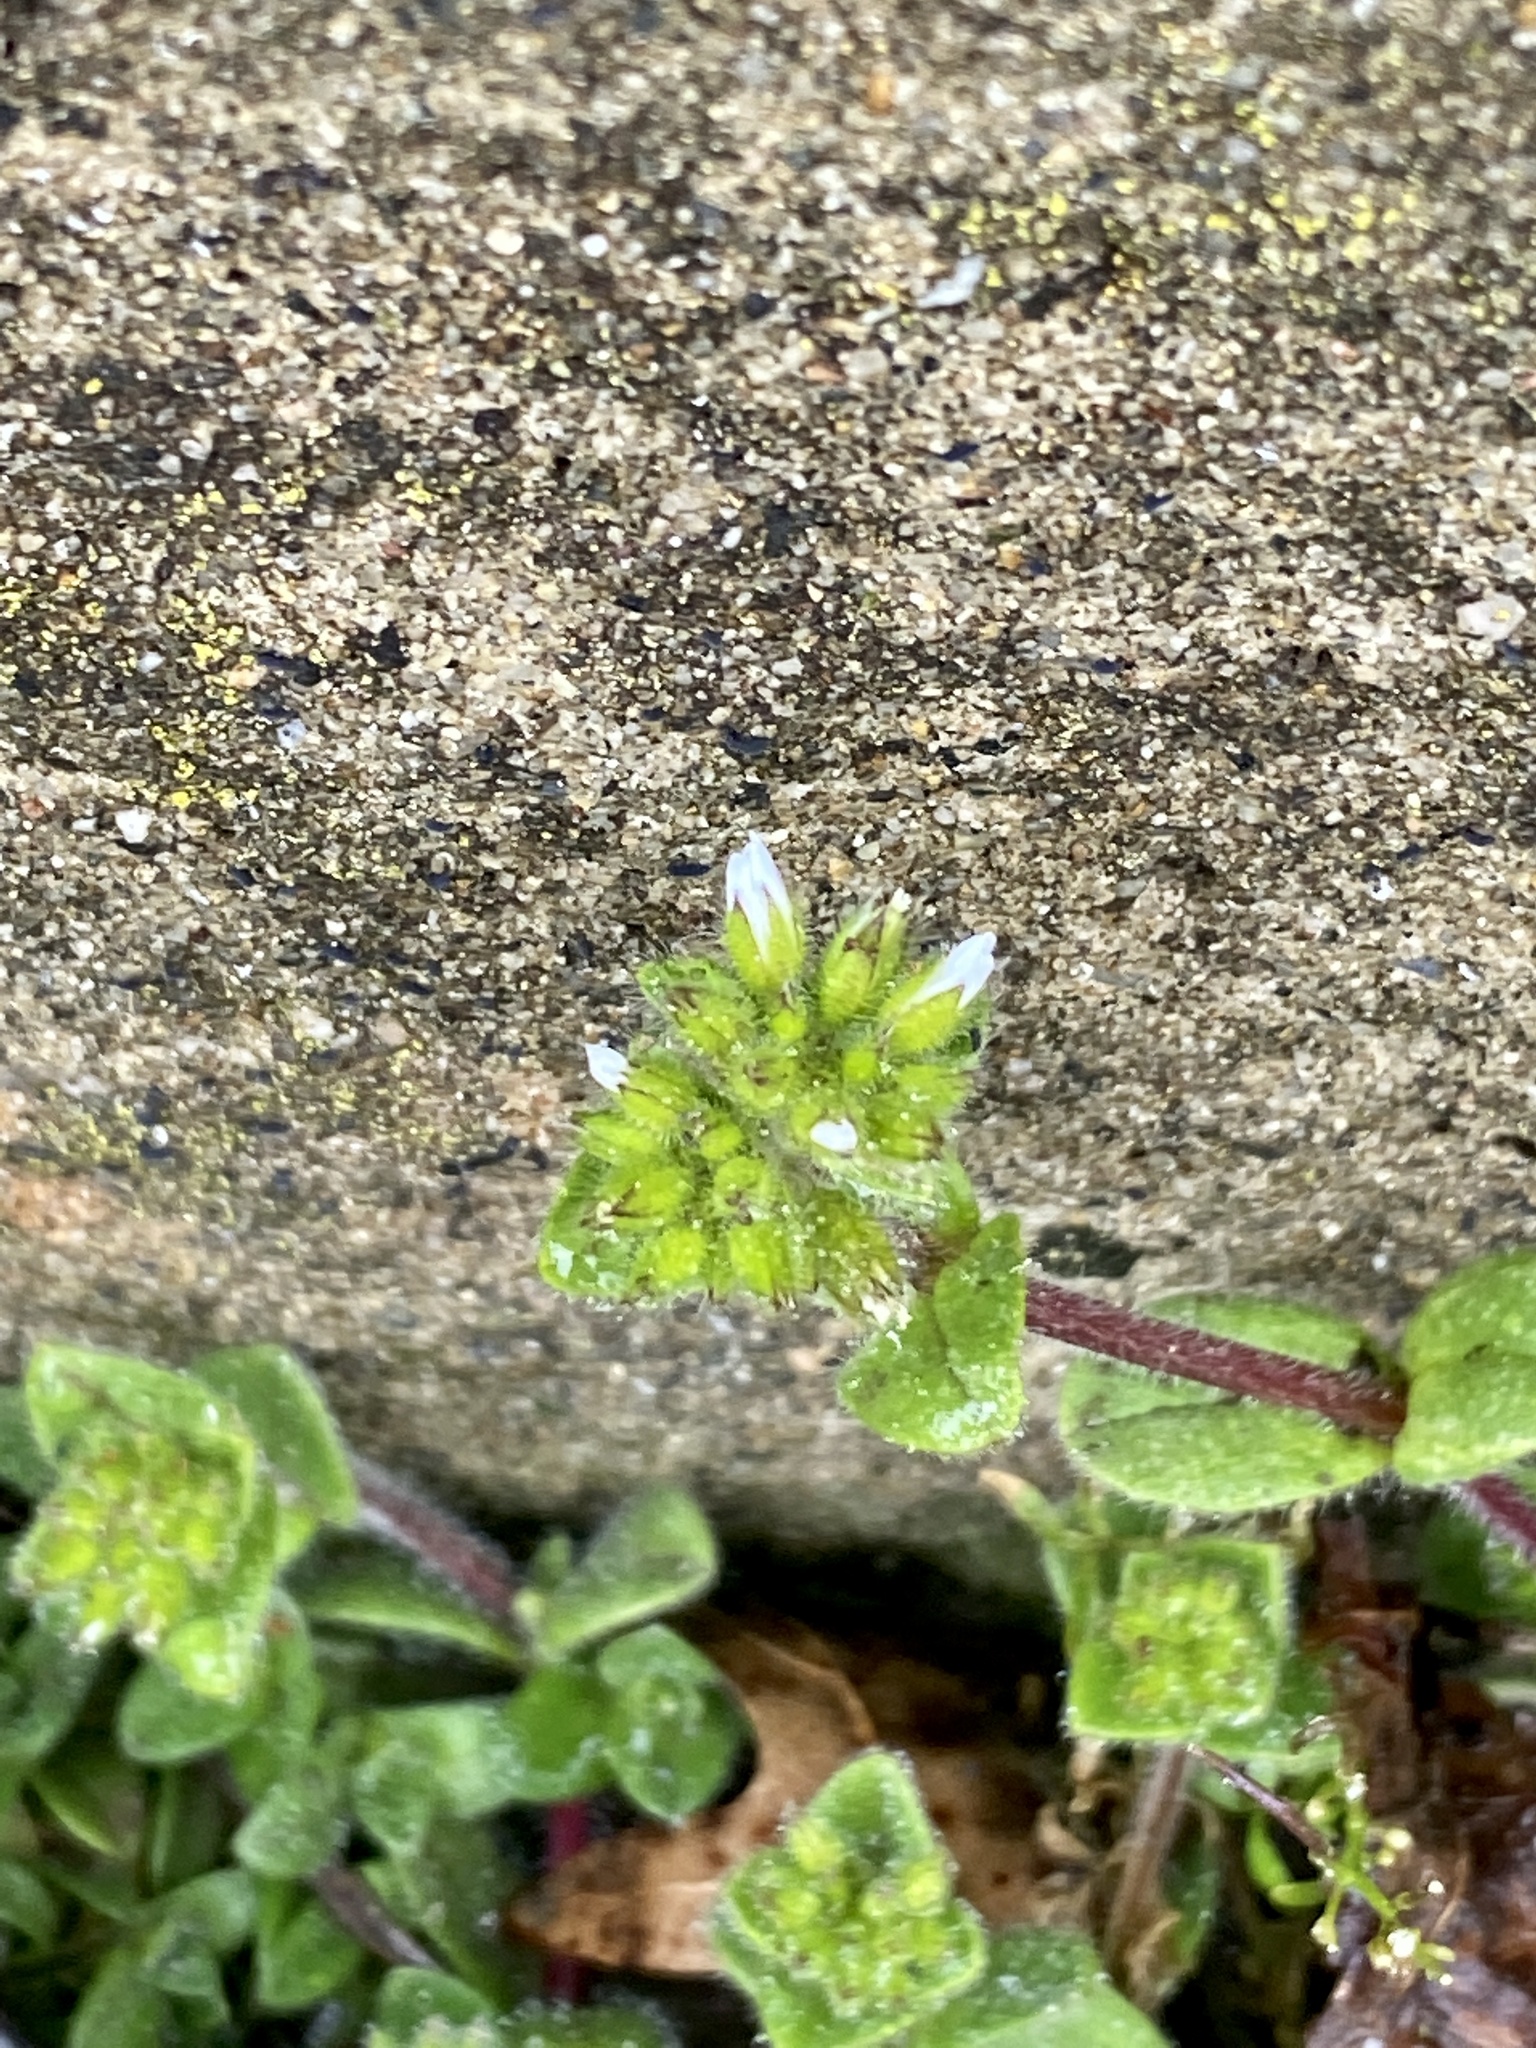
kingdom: Plantae
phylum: Tracheophyta
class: Magnoliopsida
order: Caryophyllales
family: Caryophyllaceae
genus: Cerastium
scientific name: Cerastium glomeratum
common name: Sticky chickweed
